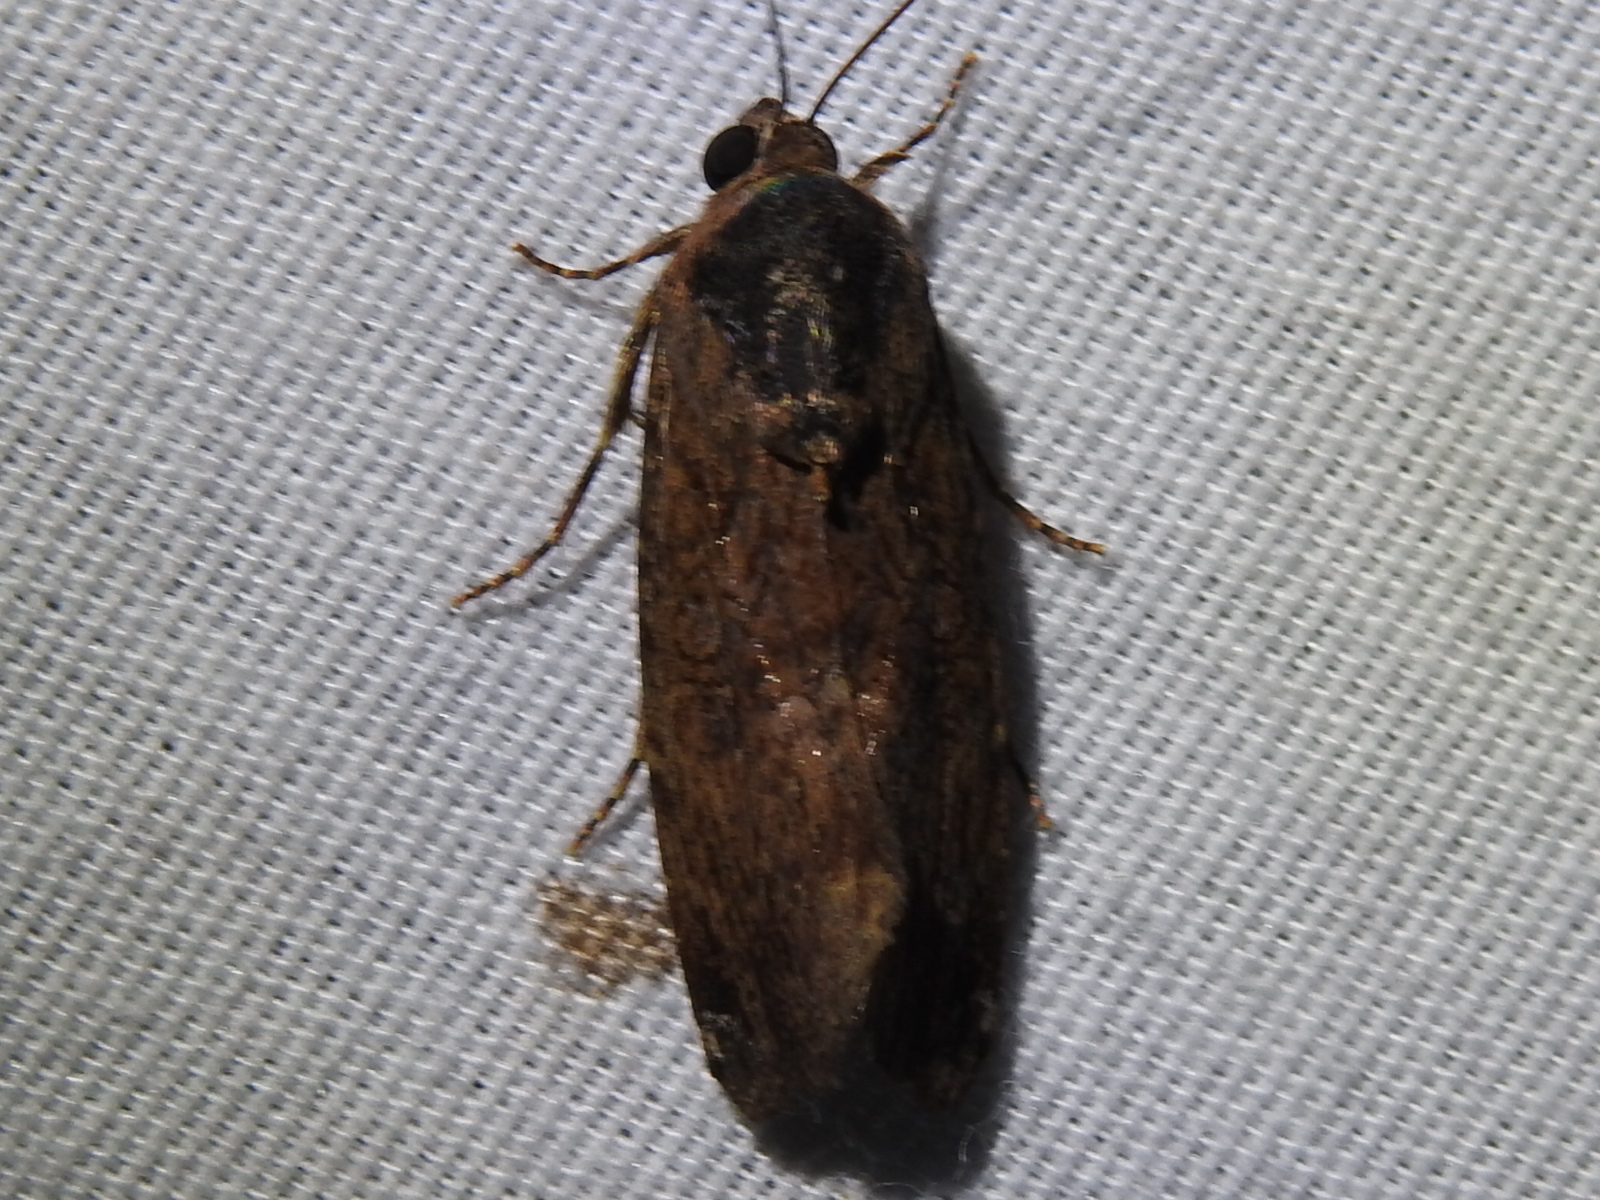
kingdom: Animalia
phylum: Arthropoda
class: Insecta
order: Lepidoptera
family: Noctuidae
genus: Magusa
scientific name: Magusa divaricata
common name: Orb narrow-winged moth
